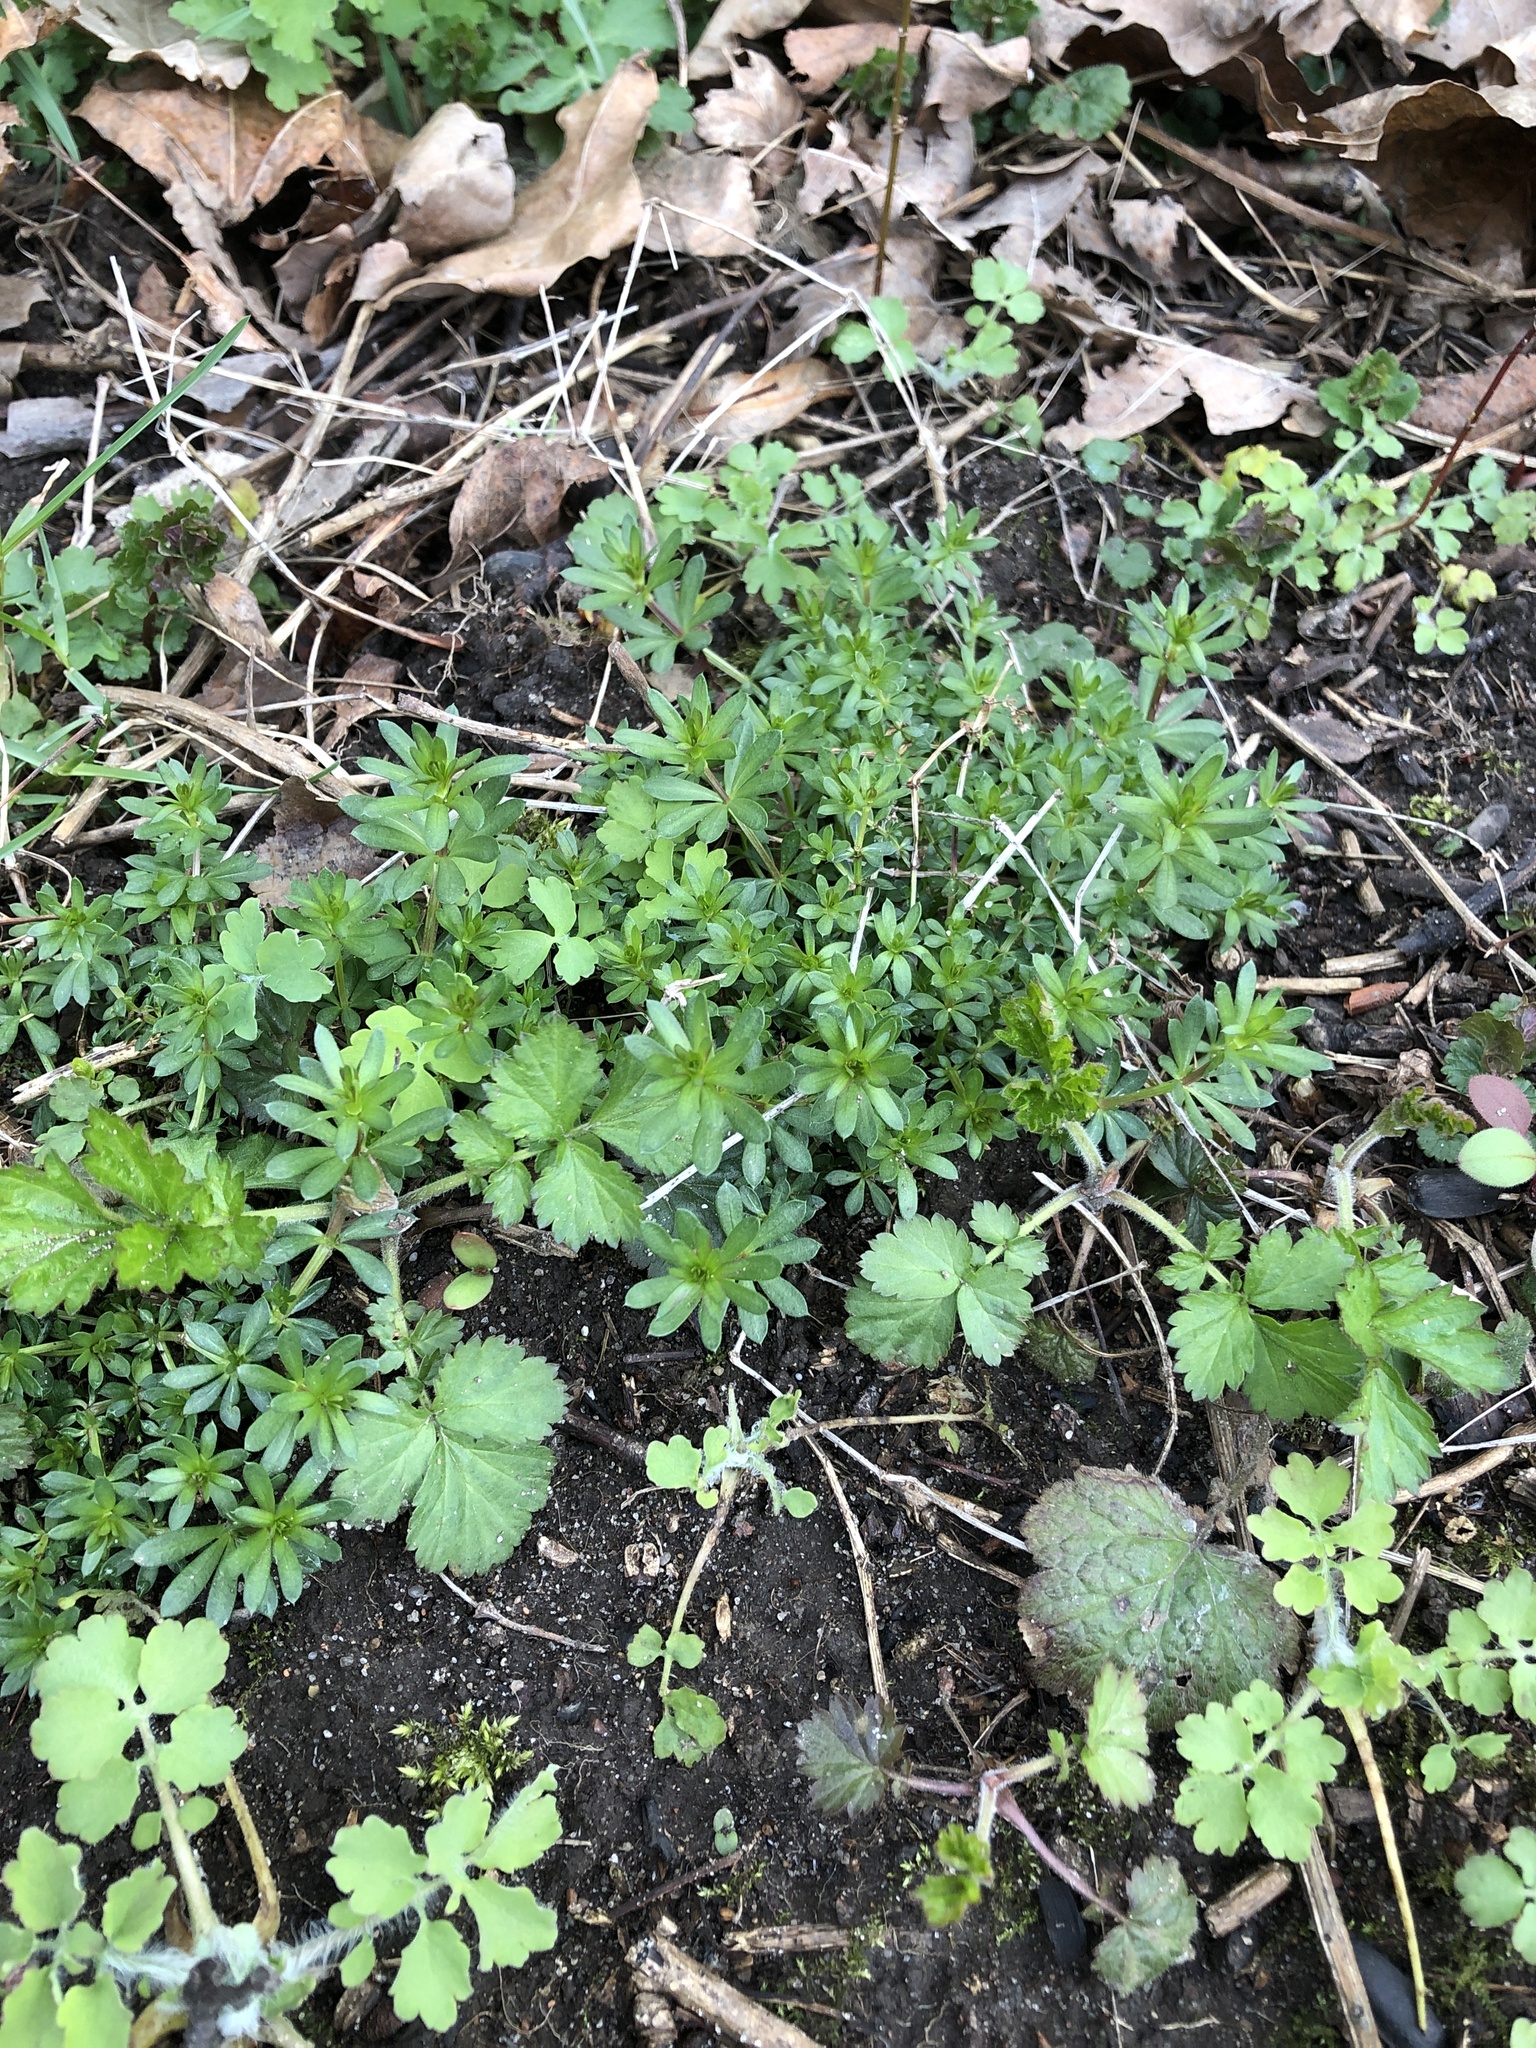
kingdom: Plantae
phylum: Tracheophyta
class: Magnoliopsida
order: Gentianales
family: Rubiaceae
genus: Galium
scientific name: Galium mollugo
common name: Hedge bedstraw
